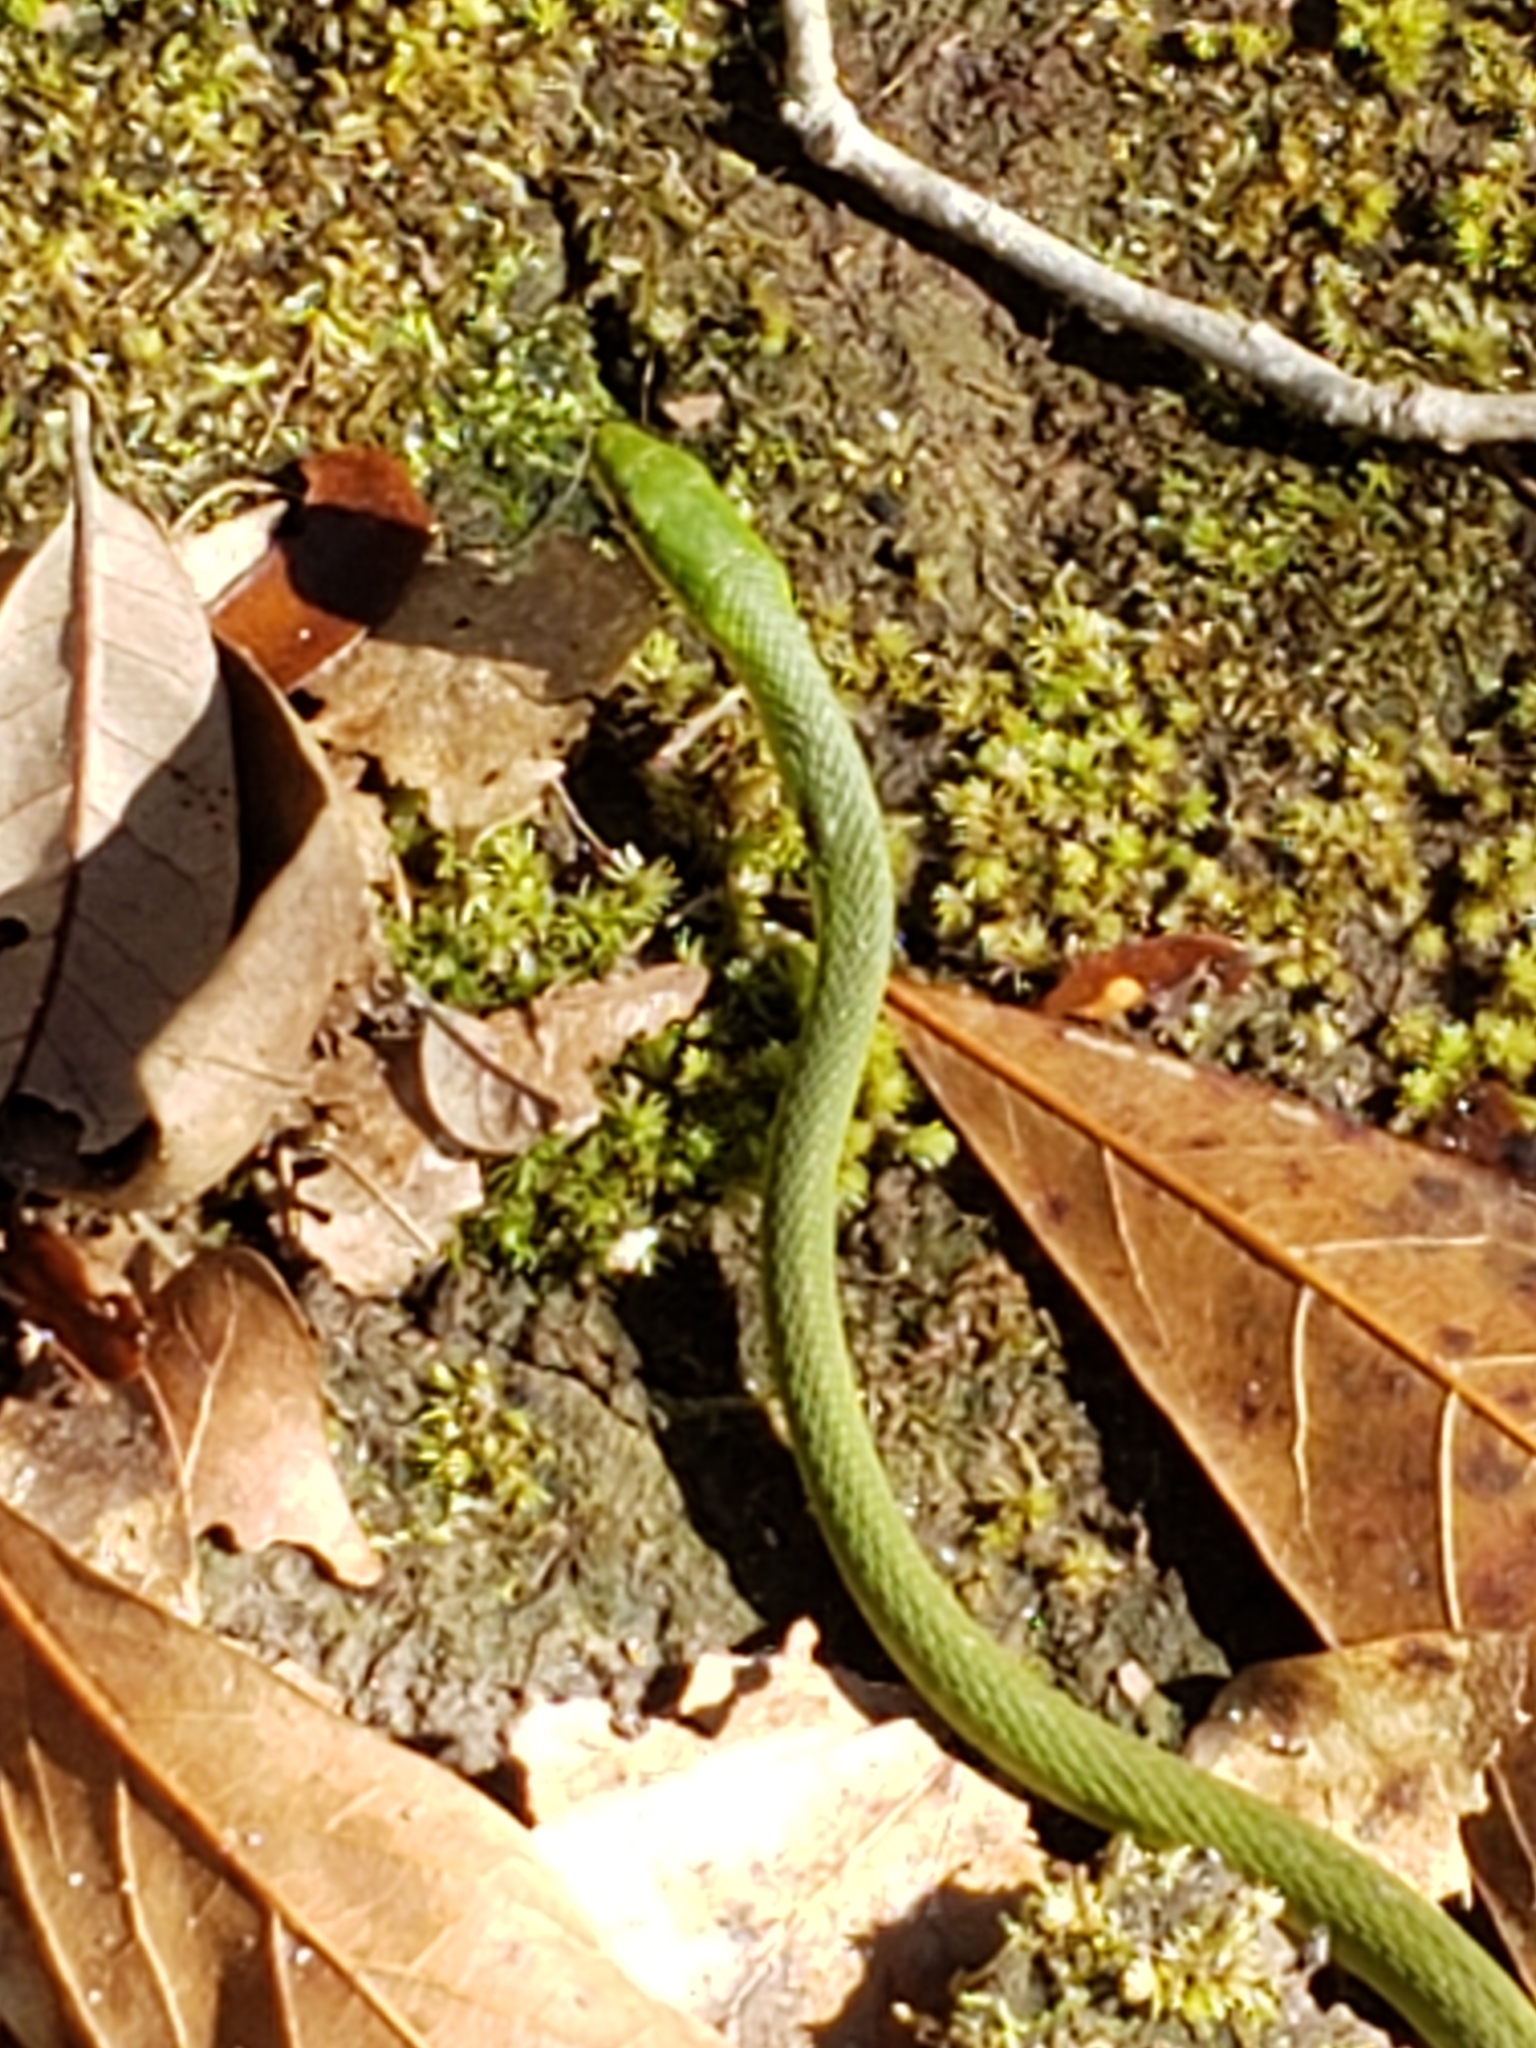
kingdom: Animalia
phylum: Chordata
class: Squamata
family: Colubridae
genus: Opheodrys
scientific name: Opheodrys aestivus
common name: Rough greensnake
